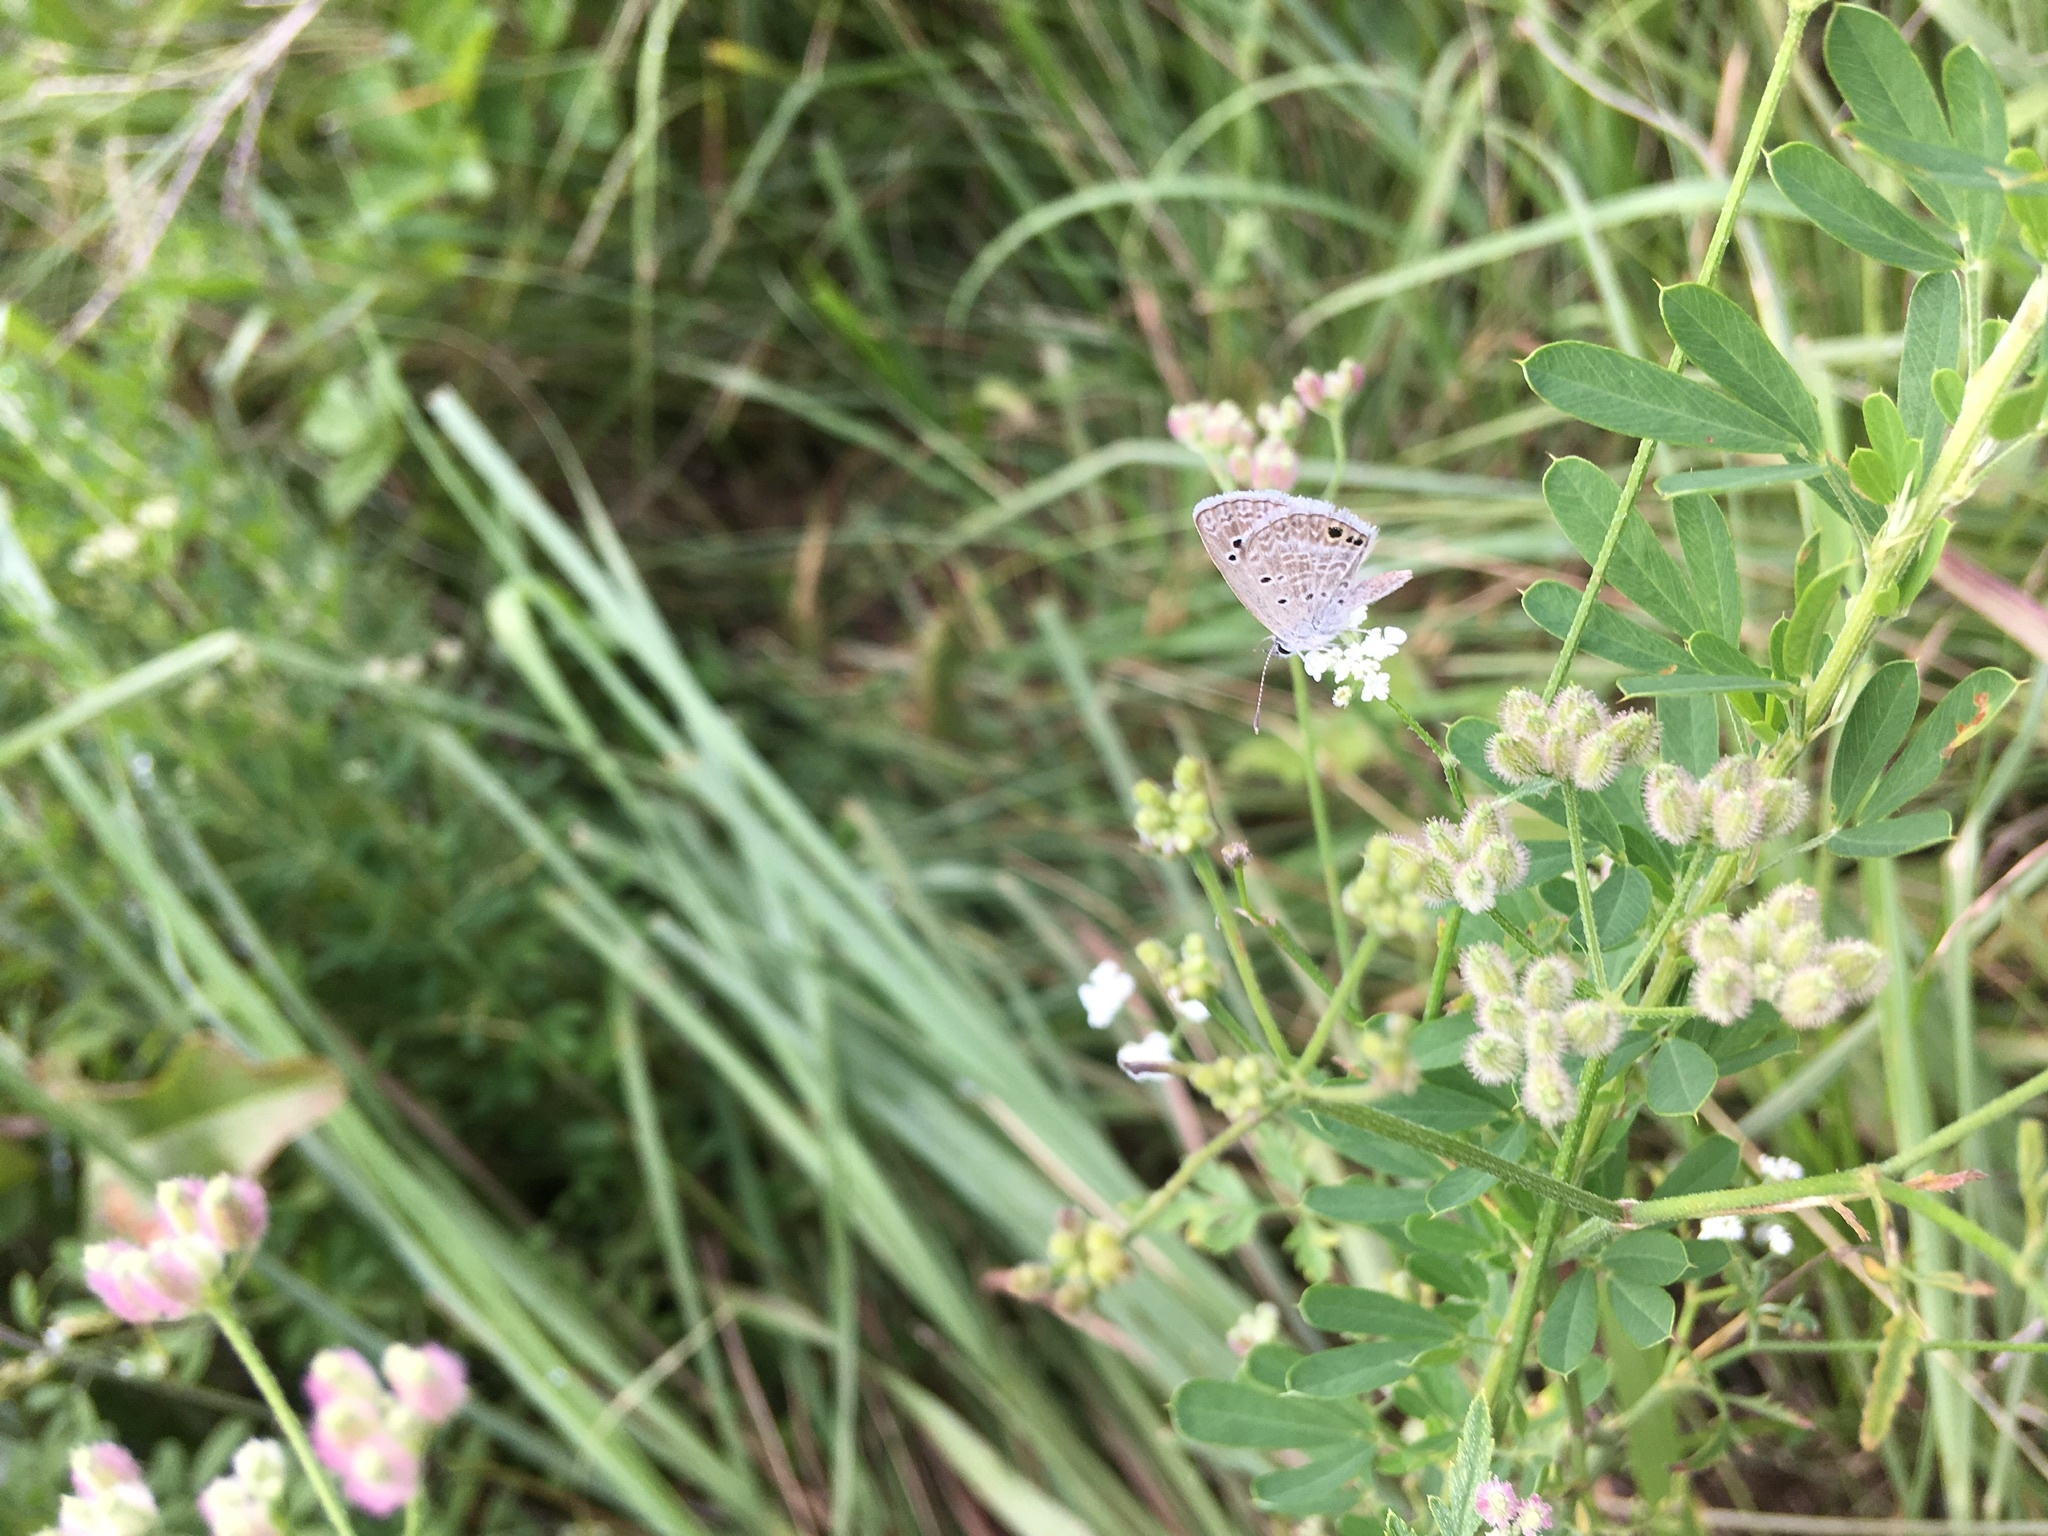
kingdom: Animalia
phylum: Arthropoda
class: Insecta
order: Lepidoptera
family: Lycaenidae
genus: Echinargus
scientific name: Echinargus isola
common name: Reakirt's blue
